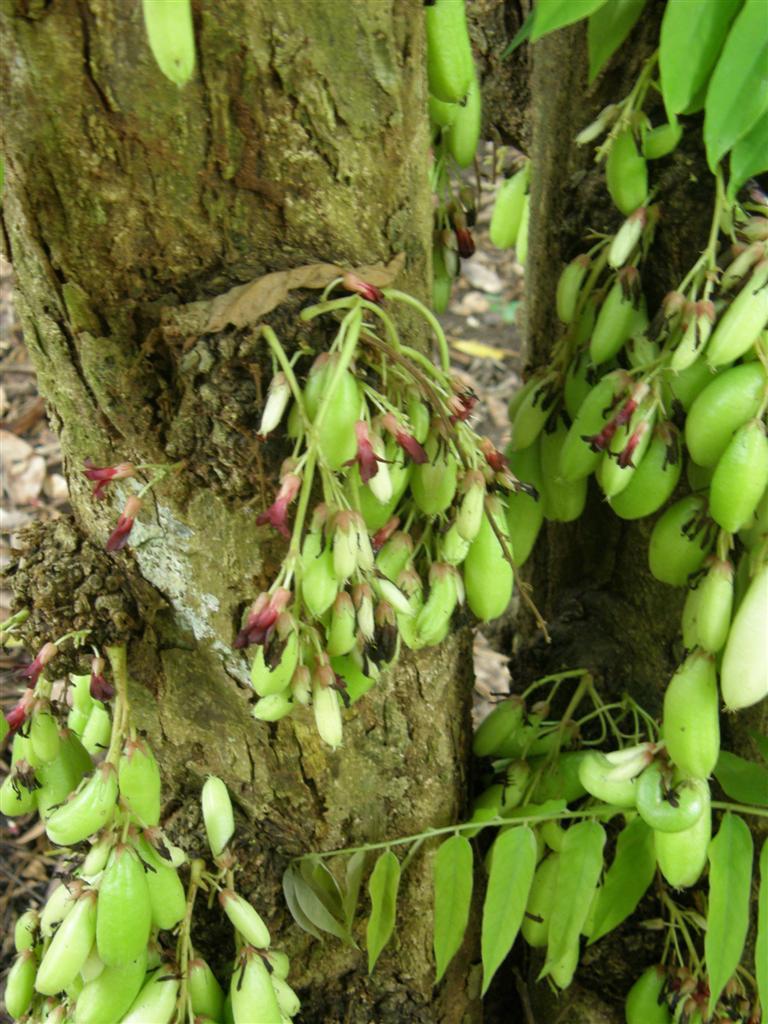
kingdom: Plantae
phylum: Tracheophyta
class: Magnoliopsida
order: Oxalidales
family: Oxalidaceae
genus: Averrhoa
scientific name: Averrhoa bilimbi
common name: Bilimbi
